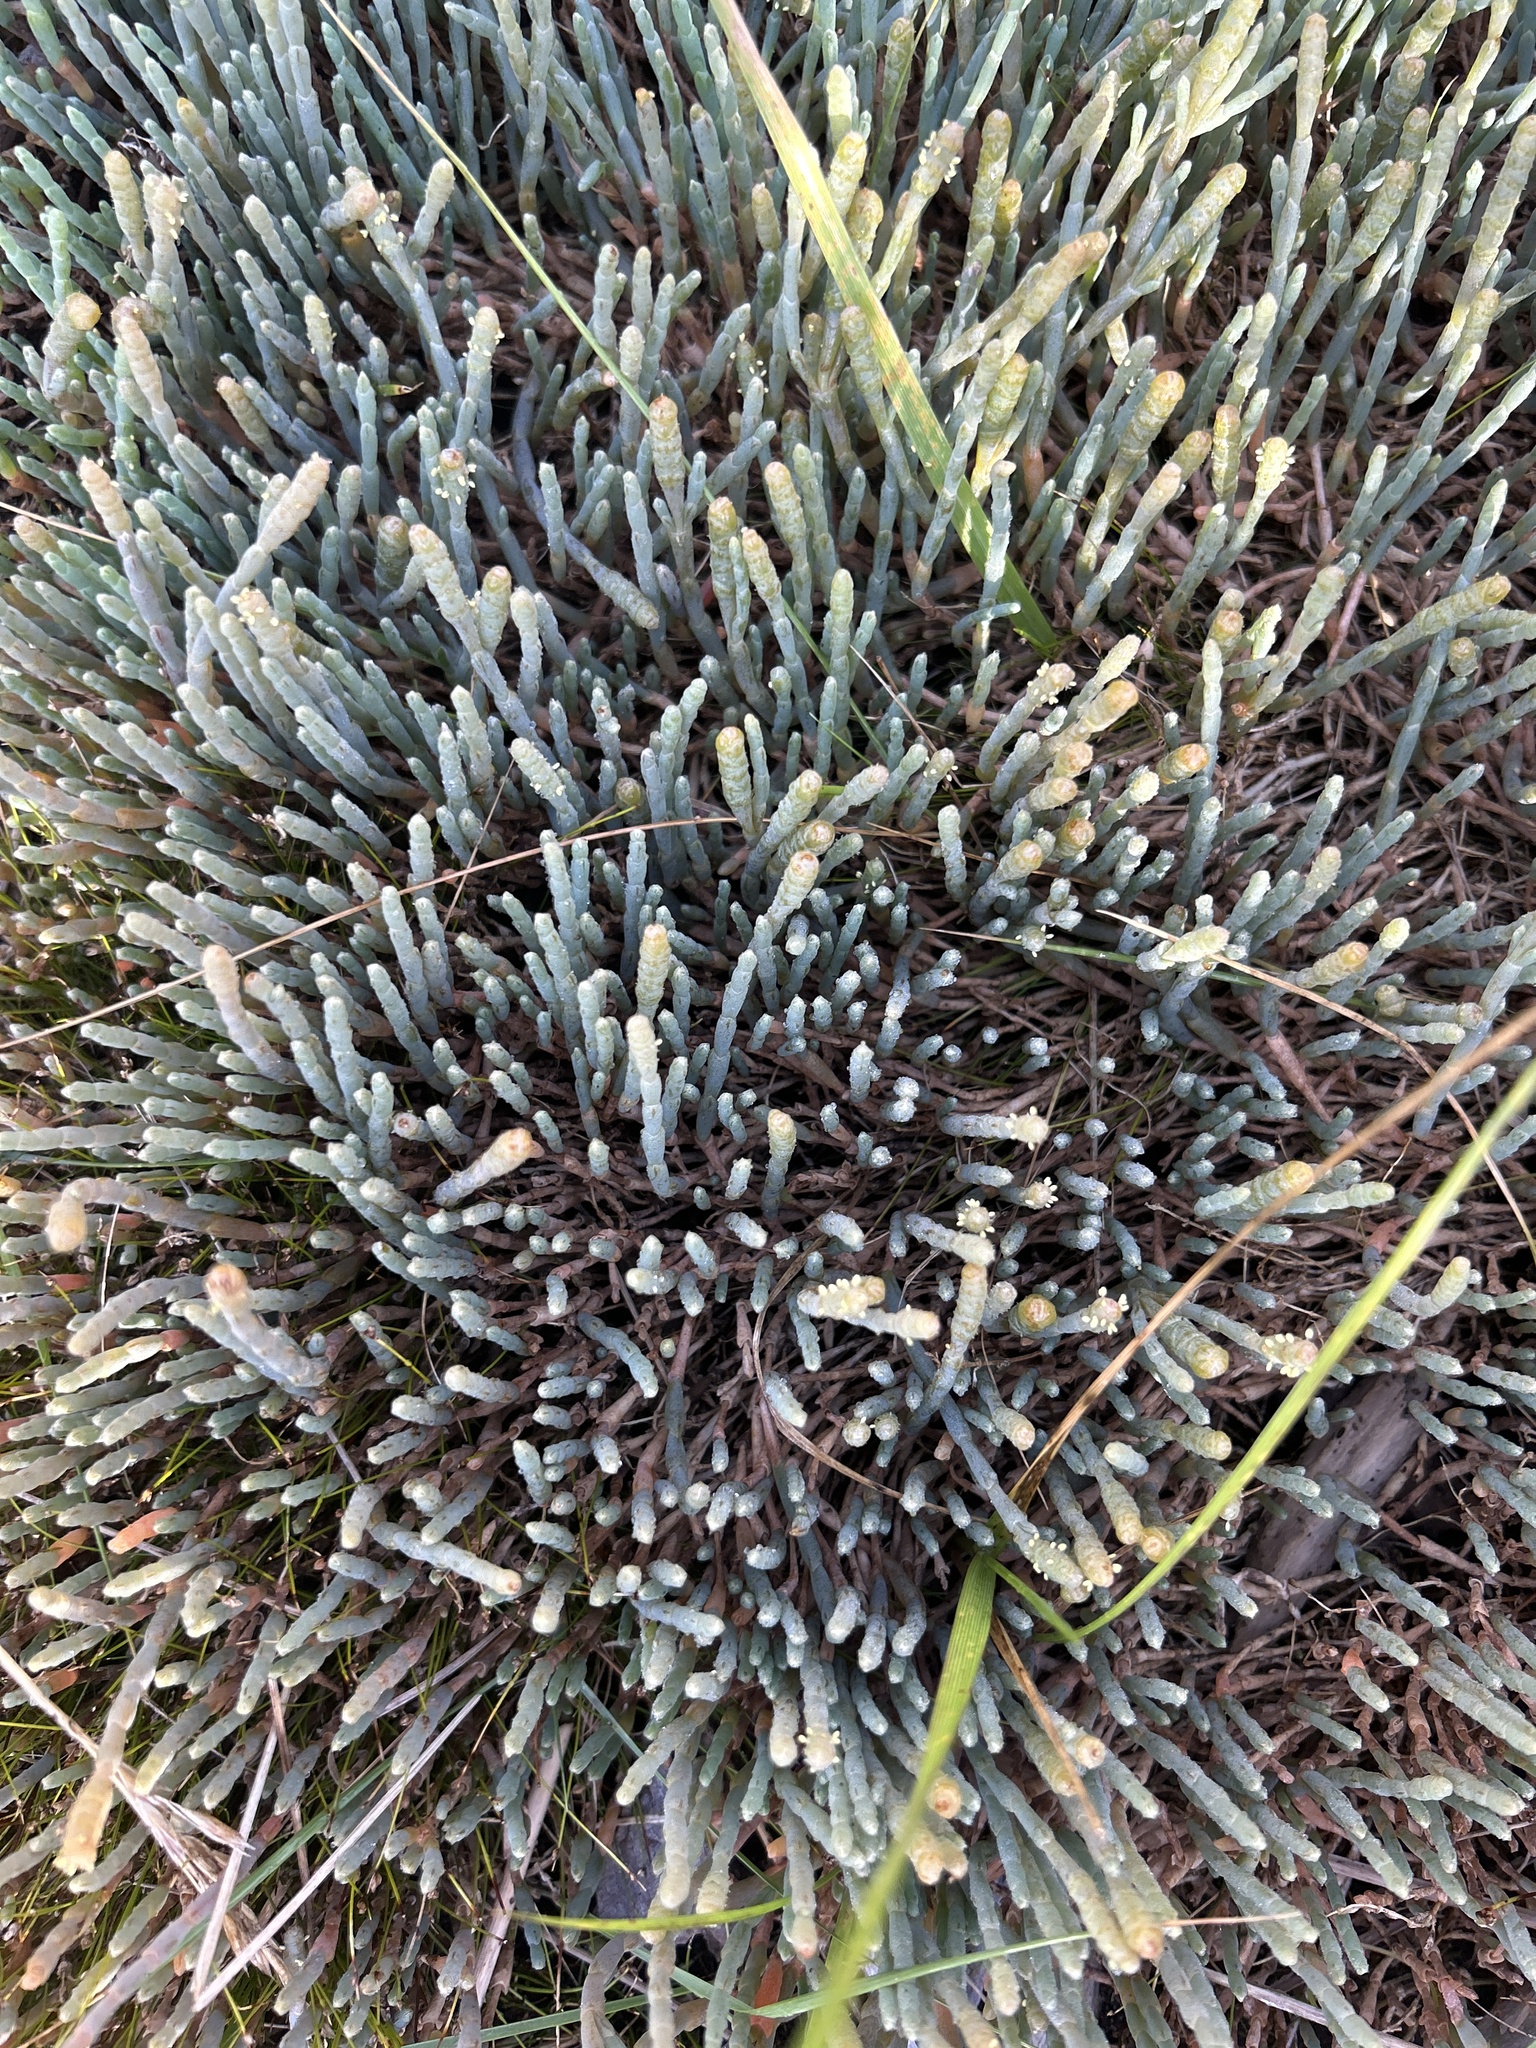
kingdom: Plantae
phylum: Tracheophyta
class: Magnoliopsida
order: Caryophyllales
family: Amaranthaceae
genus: Salicornia
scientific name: Salicornia quinqueflora
